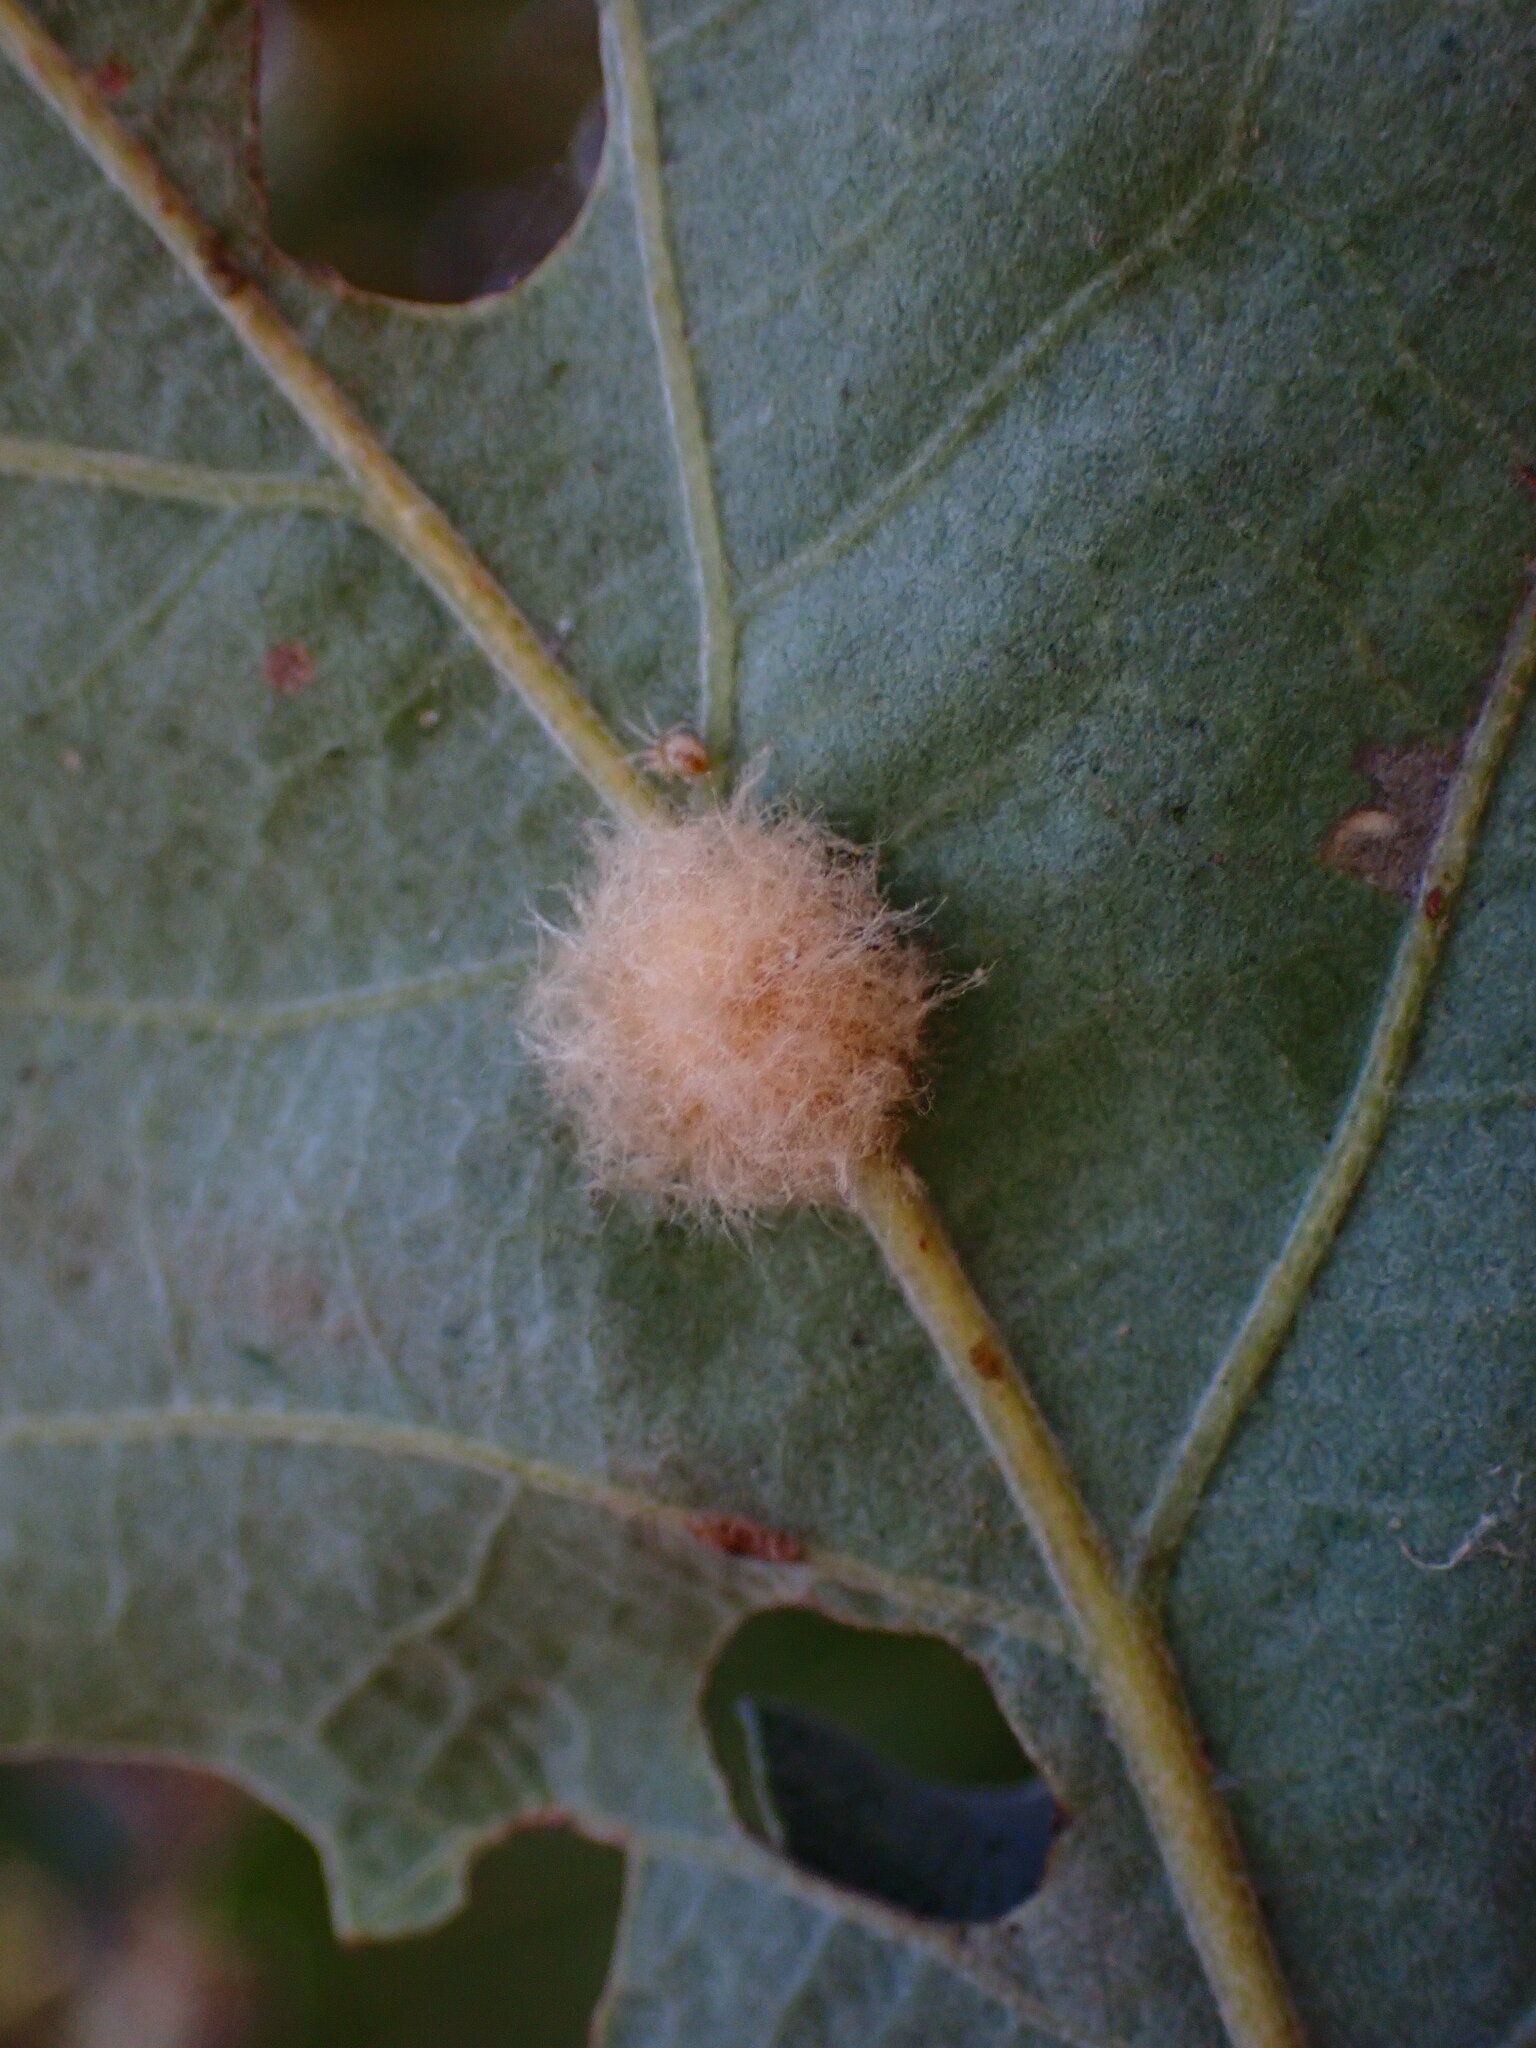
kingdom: Animalia
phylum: Arthropoda
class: Insecta
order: Hymenoptera
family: Cynipidae
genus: Andricus
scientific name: Andricus Druon fullawayi
